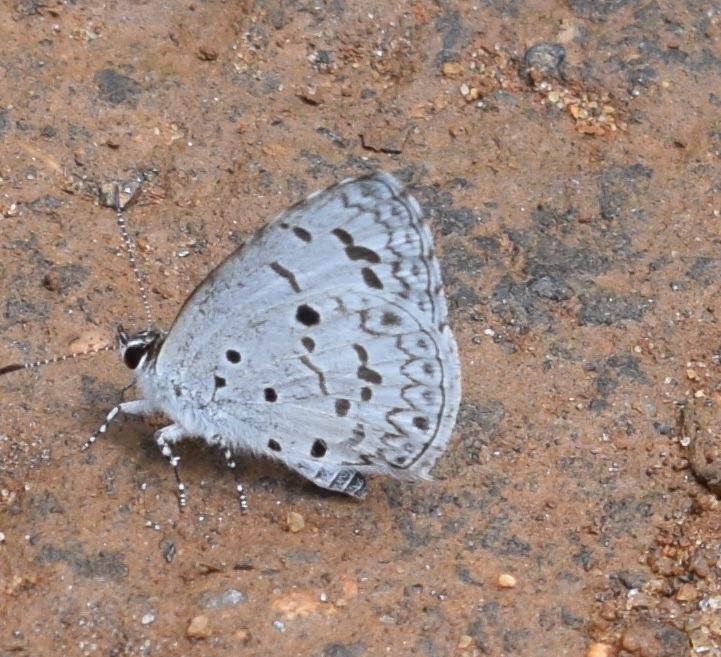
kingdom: Animalia
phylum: Arthropoda
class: Insecta
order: Lepidoptera
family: Lycaenidae
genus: Acytolepis
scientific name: Acytolepis puspa
